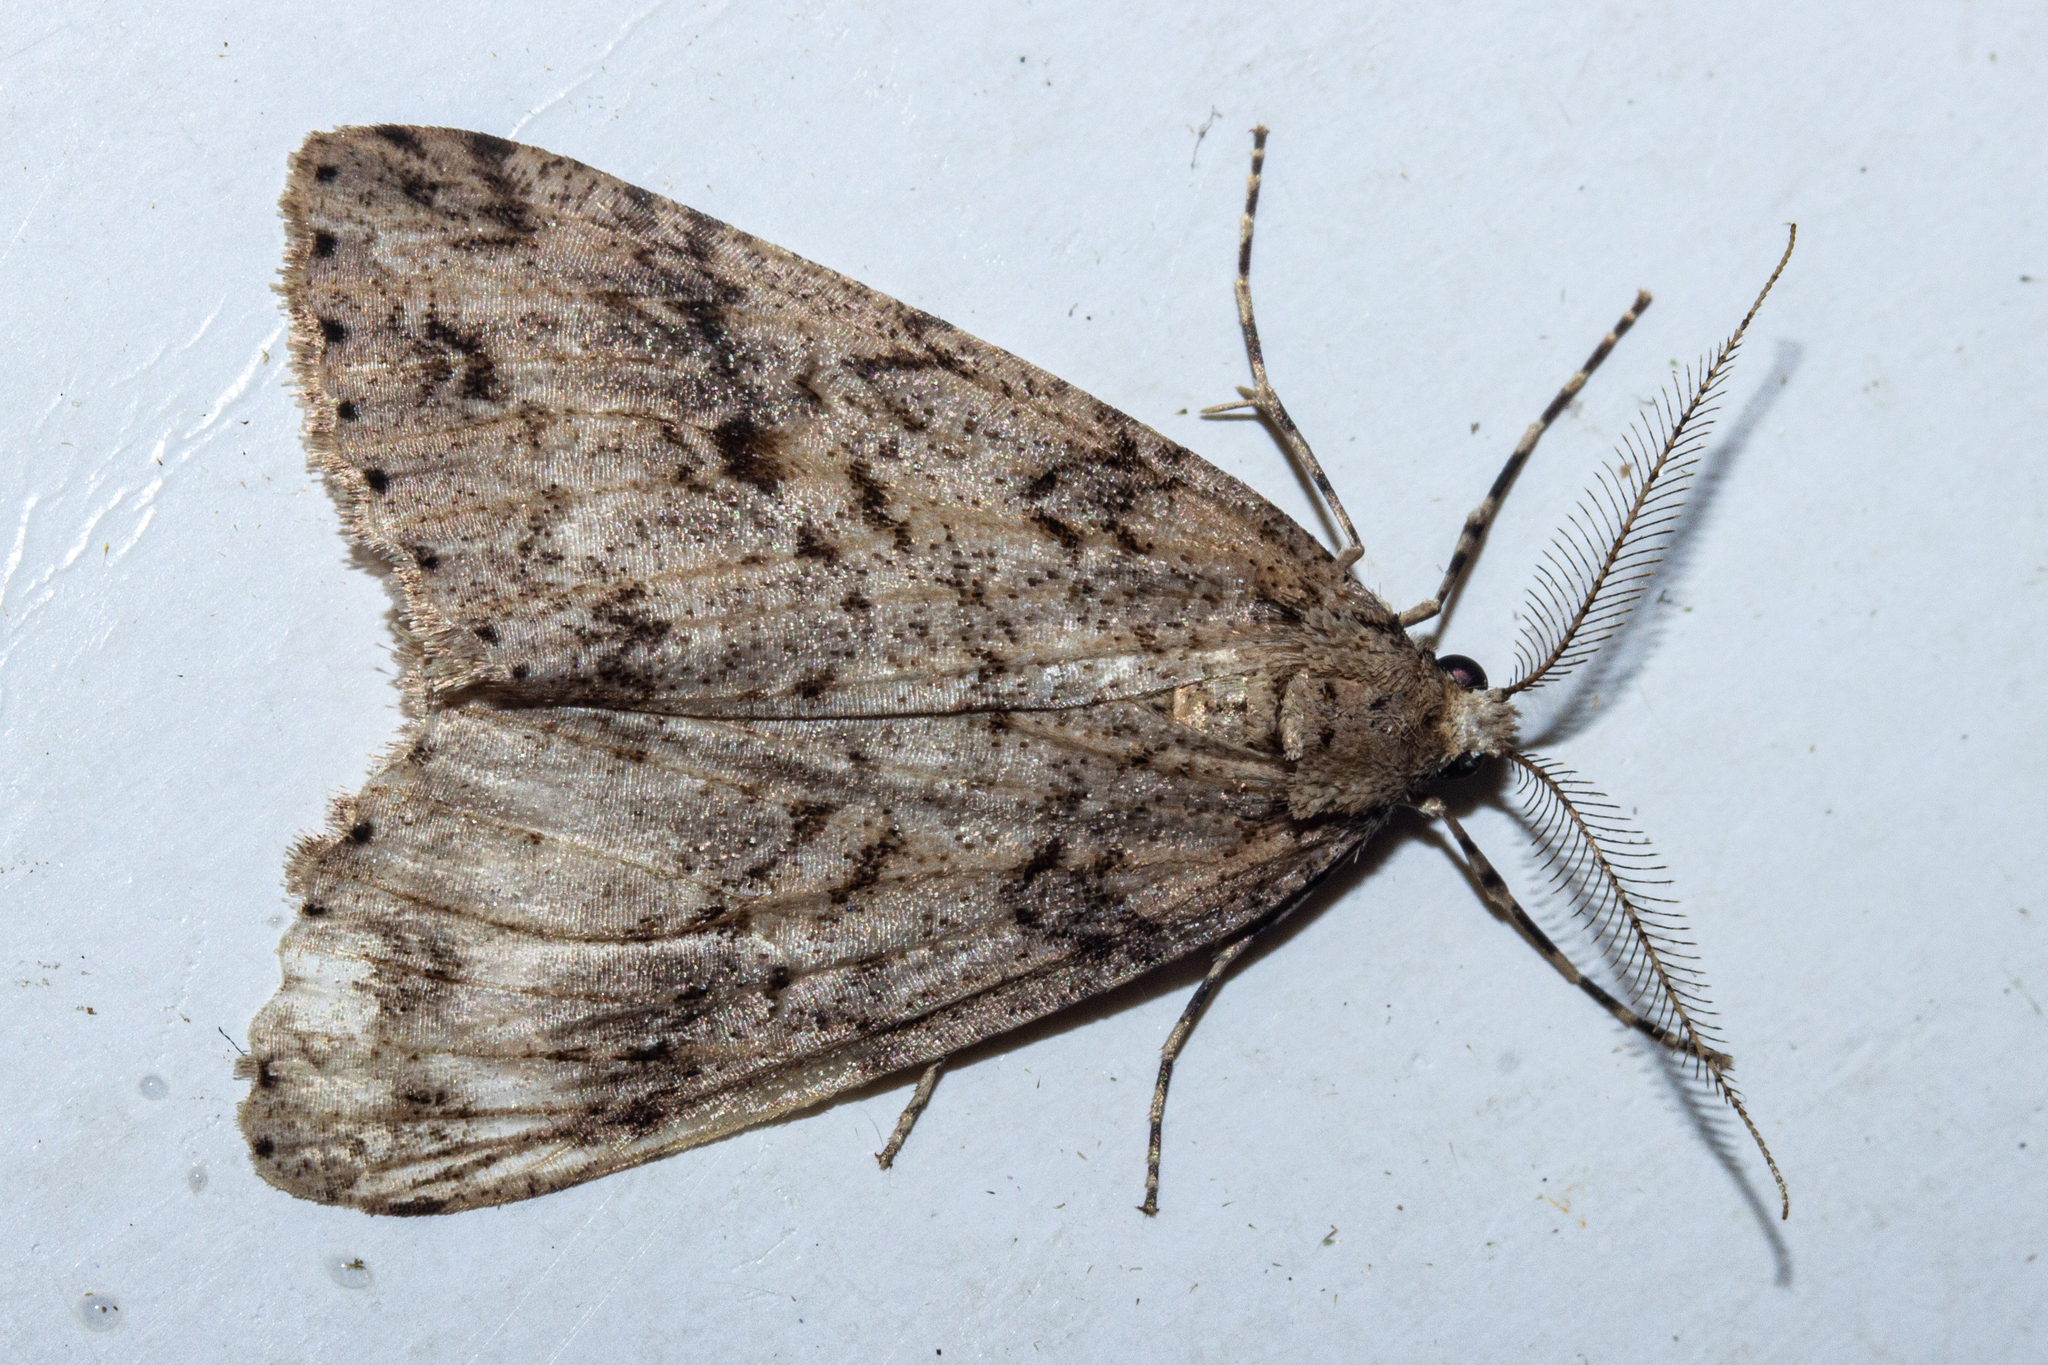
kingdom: Animalia
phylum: Arthropoda
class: Insecta
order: Lepidoptera
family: Geometridae
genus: Pseudocoremia
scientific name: Pseudocoremia rudisata
